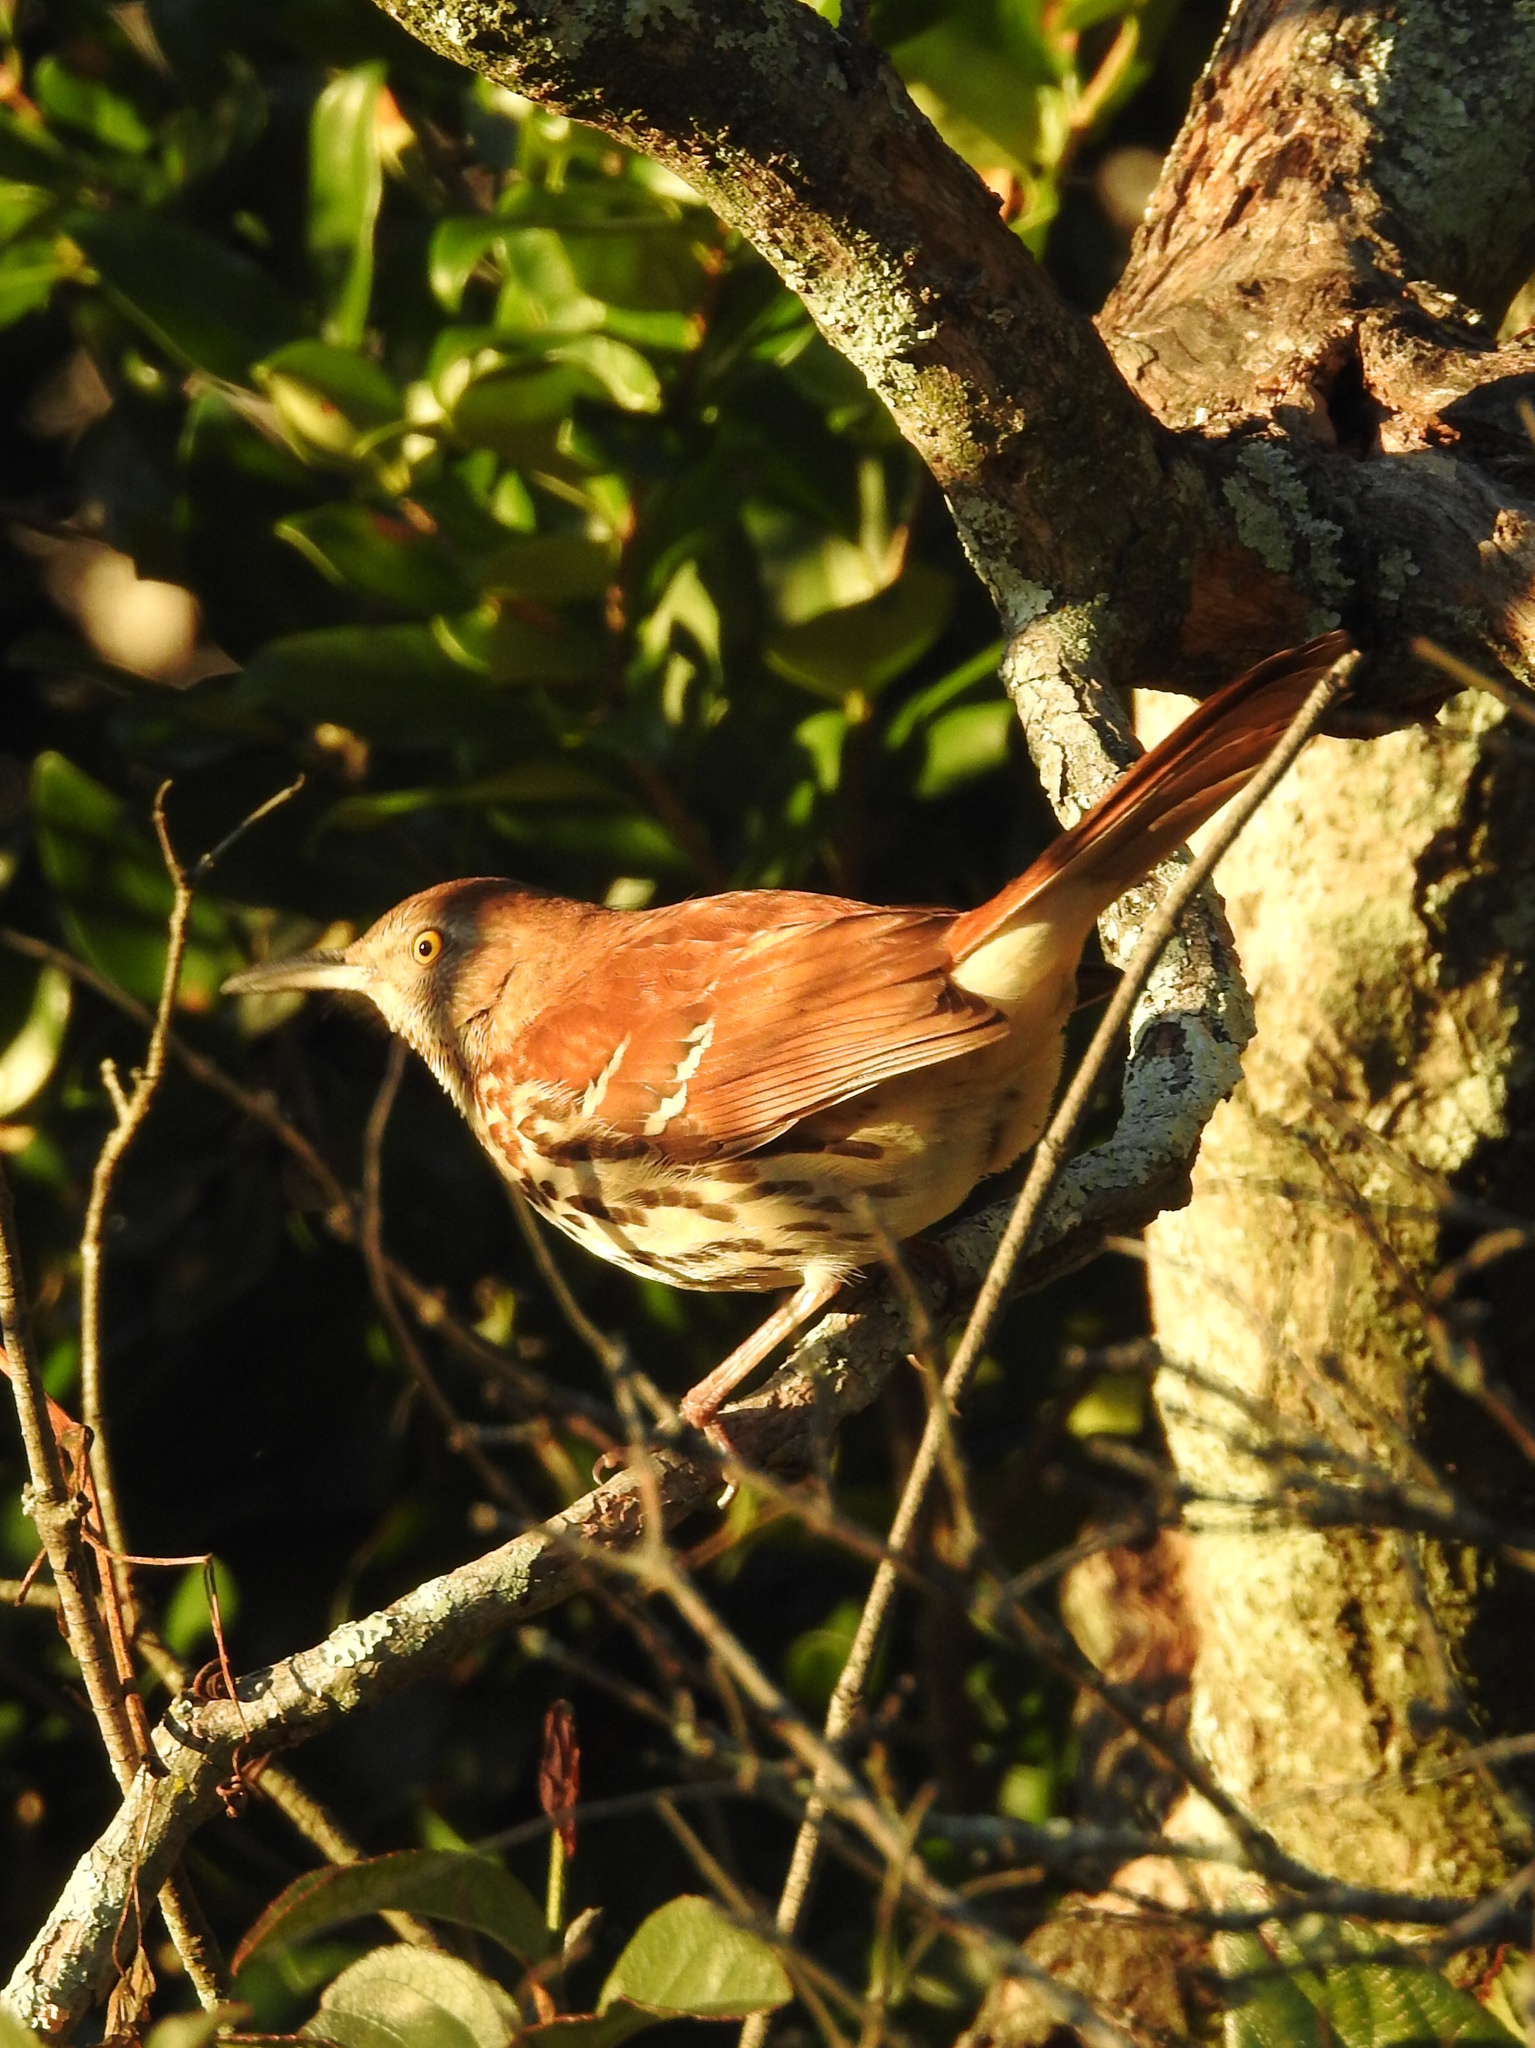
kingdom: Animalia
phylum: Chordata
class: Aves
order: Passeriformes
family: Mimidae
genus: Toxostoma
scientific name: Toxostoma rufum
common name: Brown thrasher
